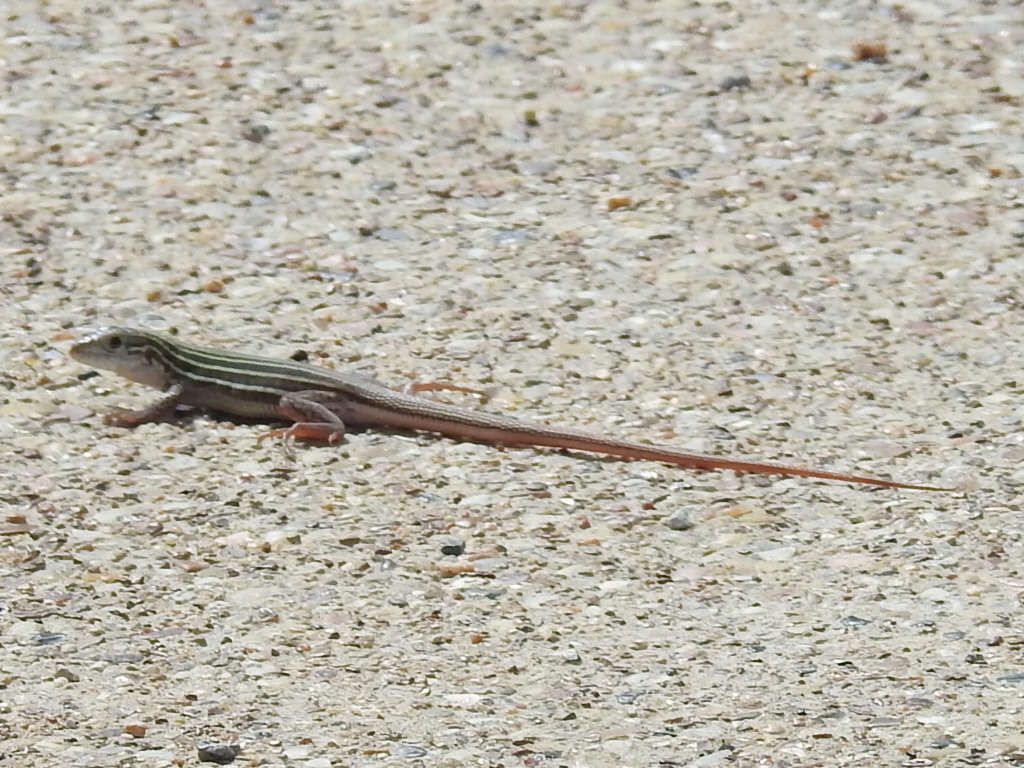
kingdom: Animalia
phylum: Chordata
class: Squamata
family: Teiidae
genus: Aspidoscelis
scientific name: Aspidoscelis gularis
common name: Eastern spotted whiptail
